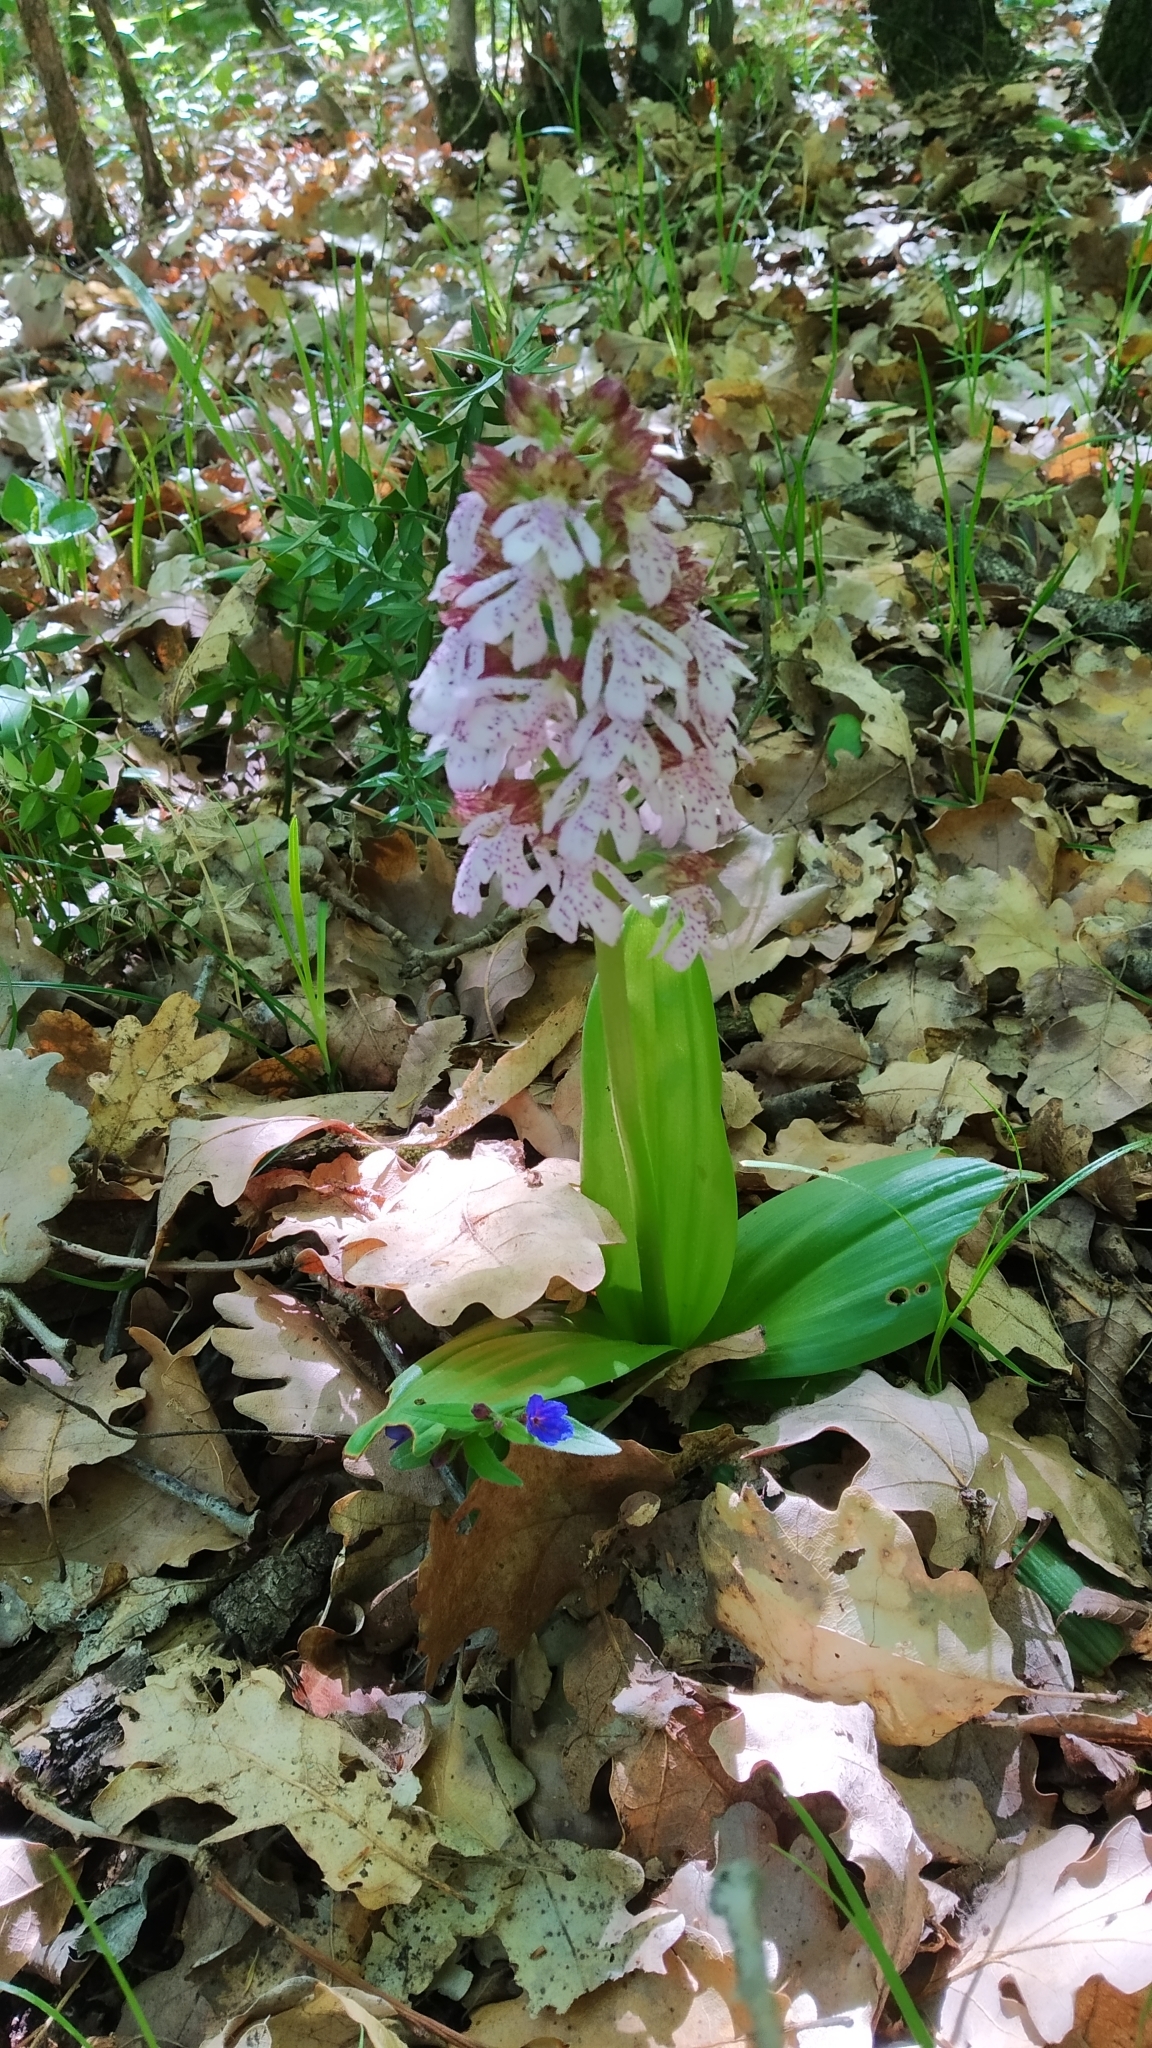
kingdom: Plantae
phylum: Tracheophyta
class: Liliopsida
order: Asparagales
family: Orchidaceae
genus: Orchis
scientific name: Orchis purpurea
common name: Lady orchid
